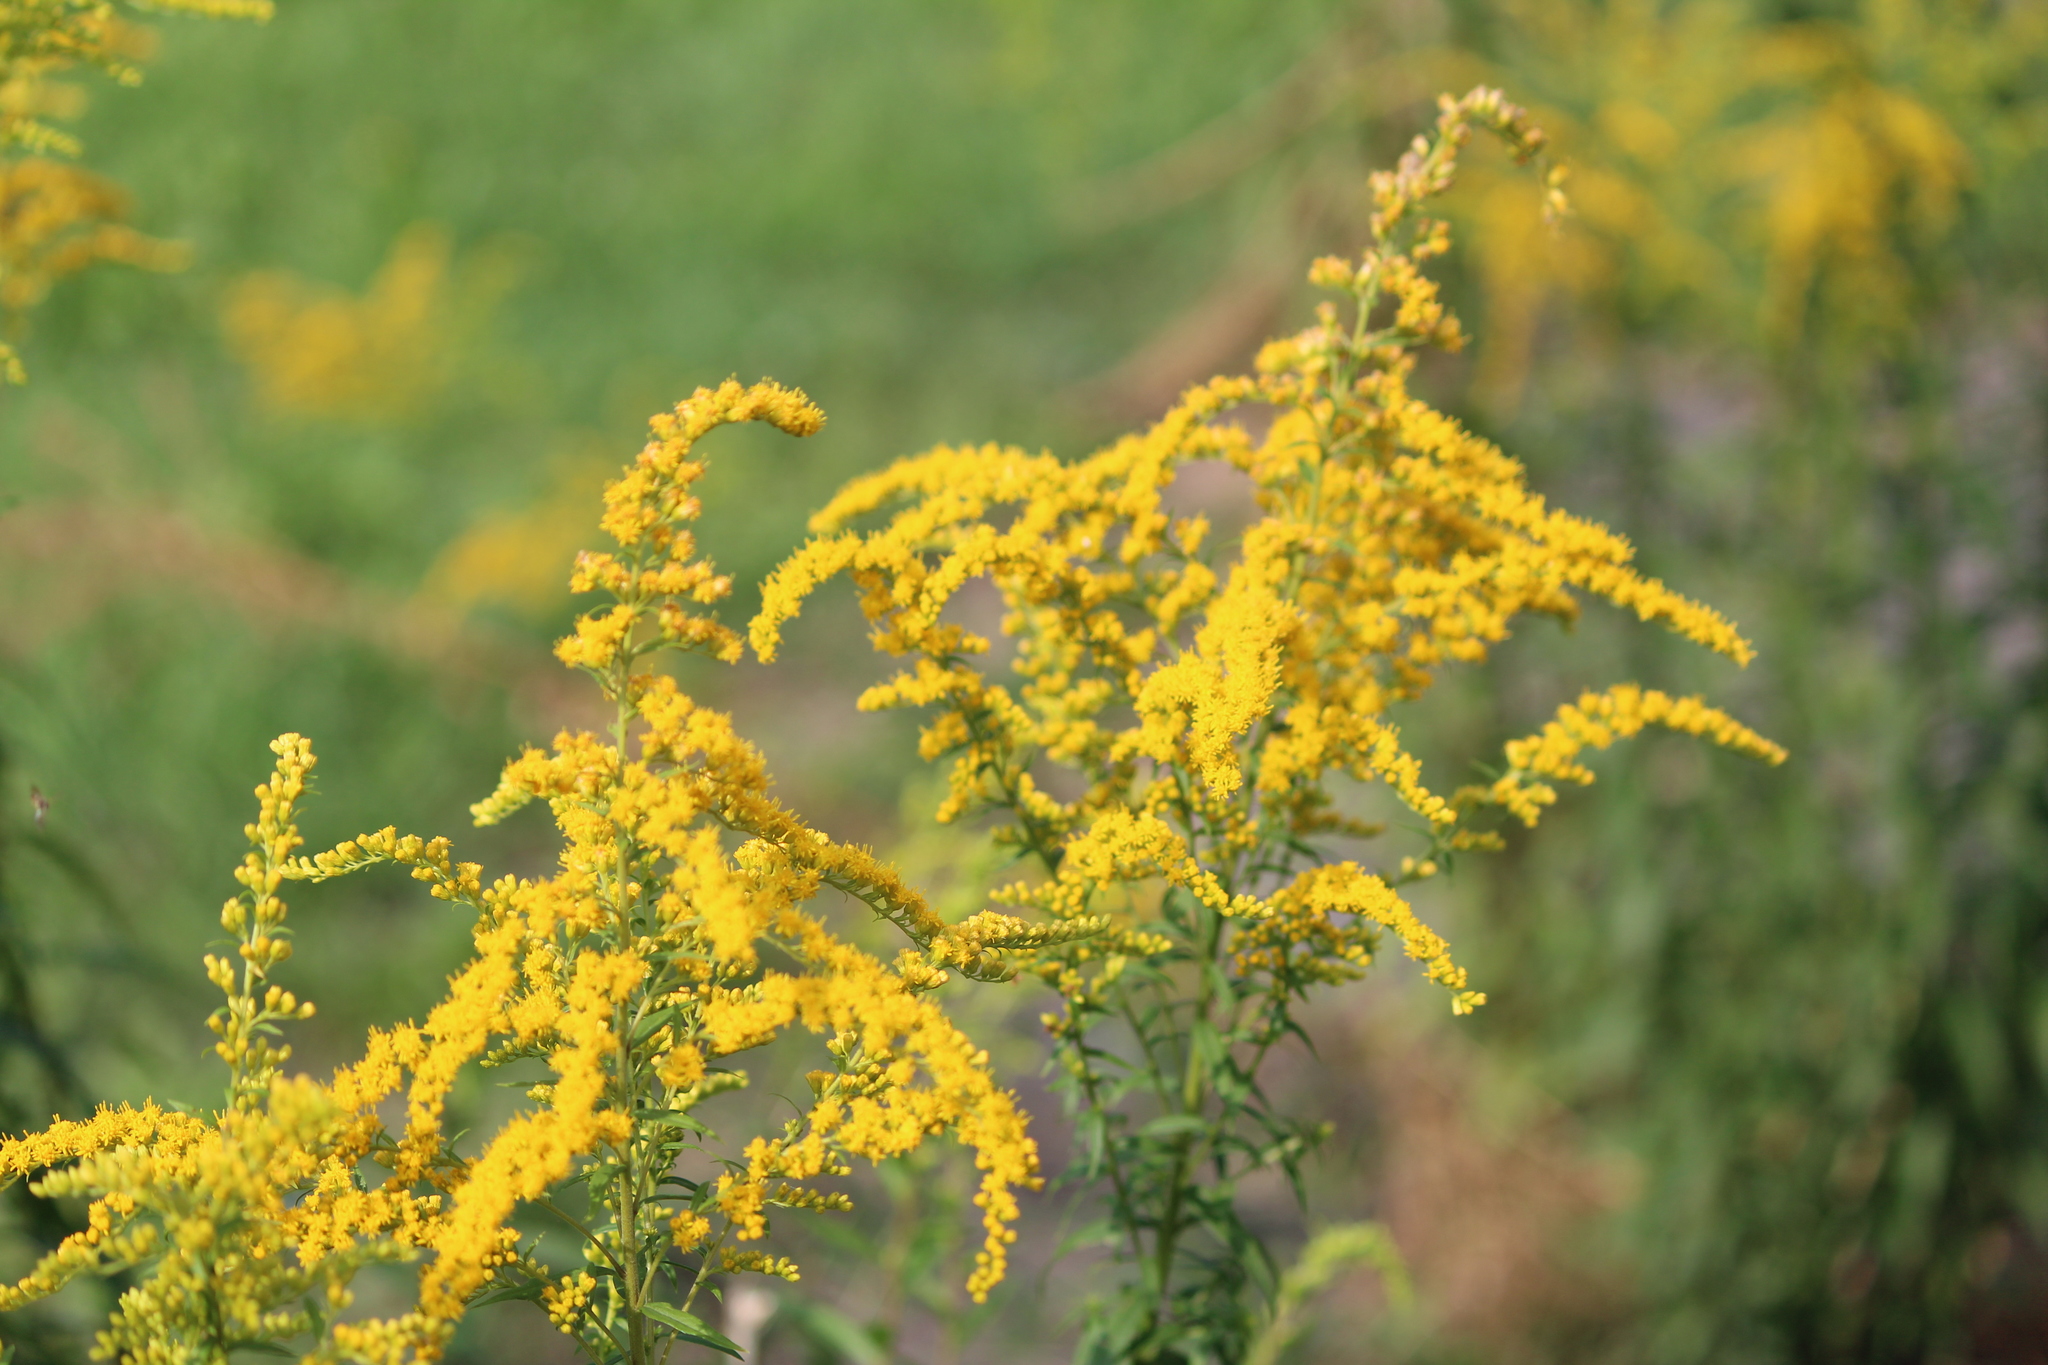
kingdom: Plantae
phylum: Tracheophyta
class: Magnoliopsida
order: Asterales
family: Asteraceae
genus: Solidago
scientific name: Solidago canadensis
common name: Canada goldenrod
